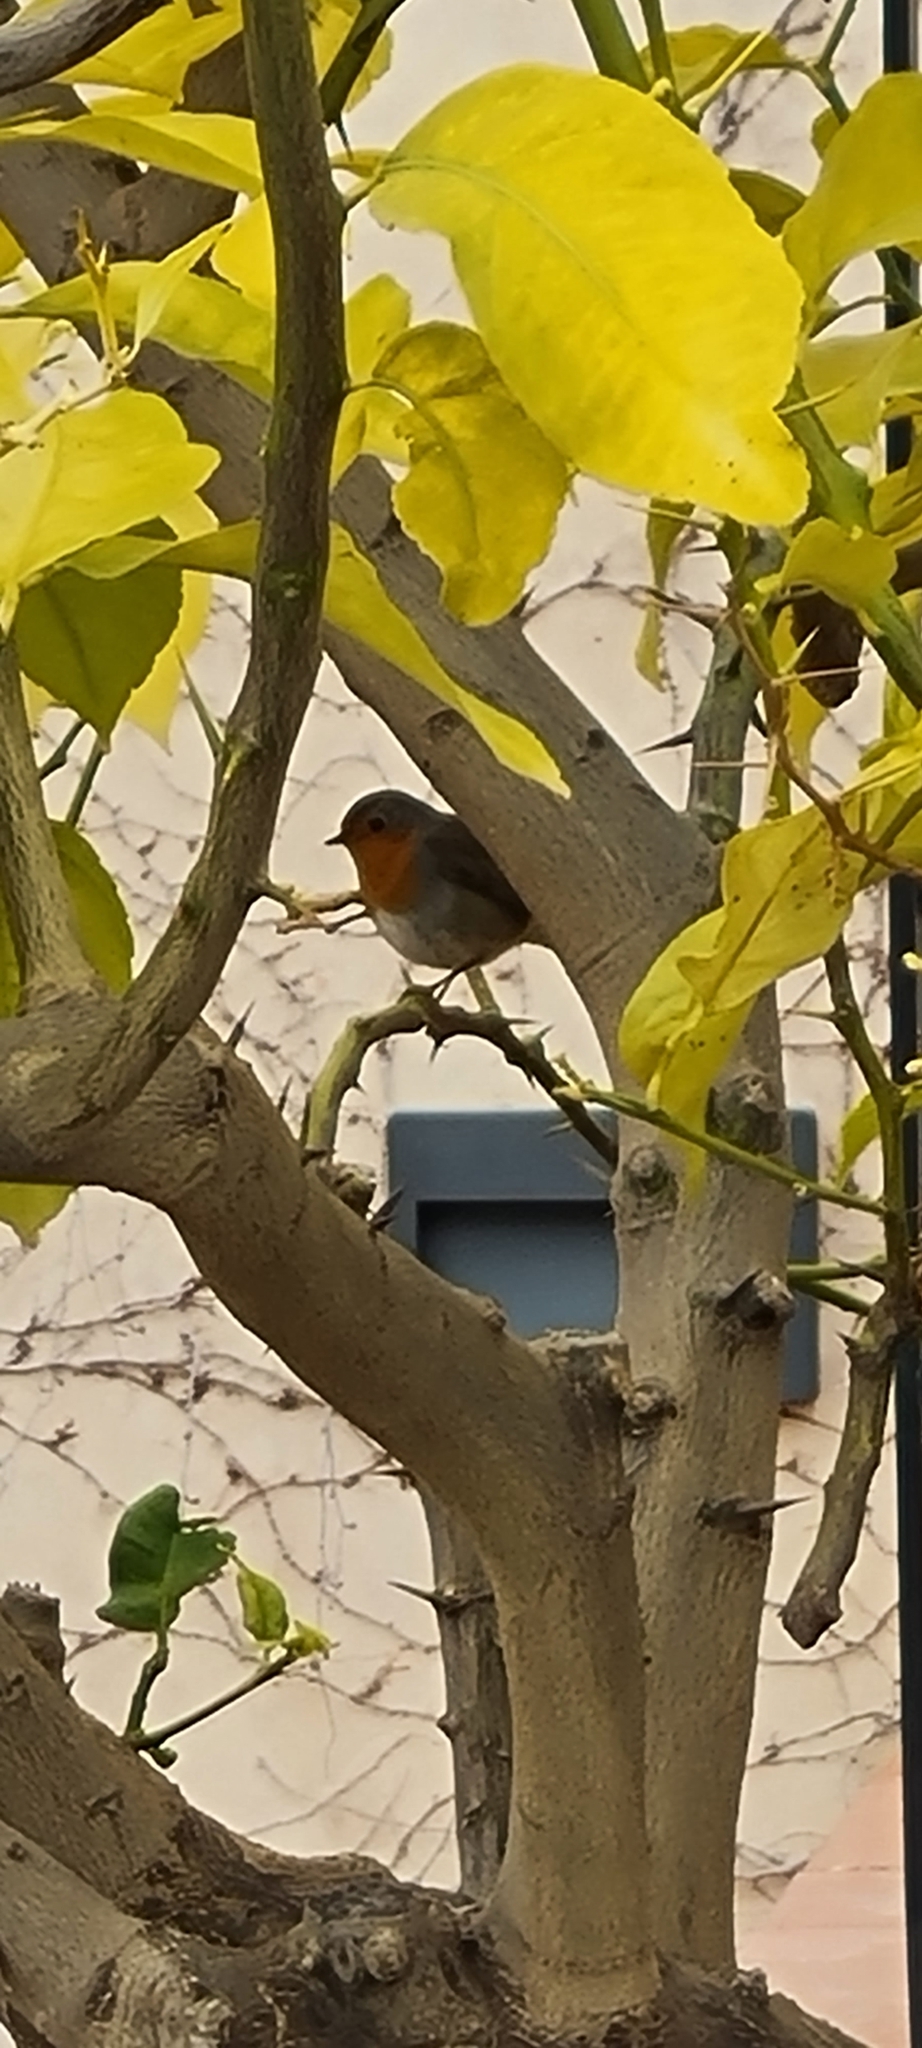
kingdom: Animalia
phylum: Chordata
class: Aves
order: Passeriformes
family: Muscicapidae
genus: Erithacus
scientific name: Erithacus rubecula
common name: European robin
